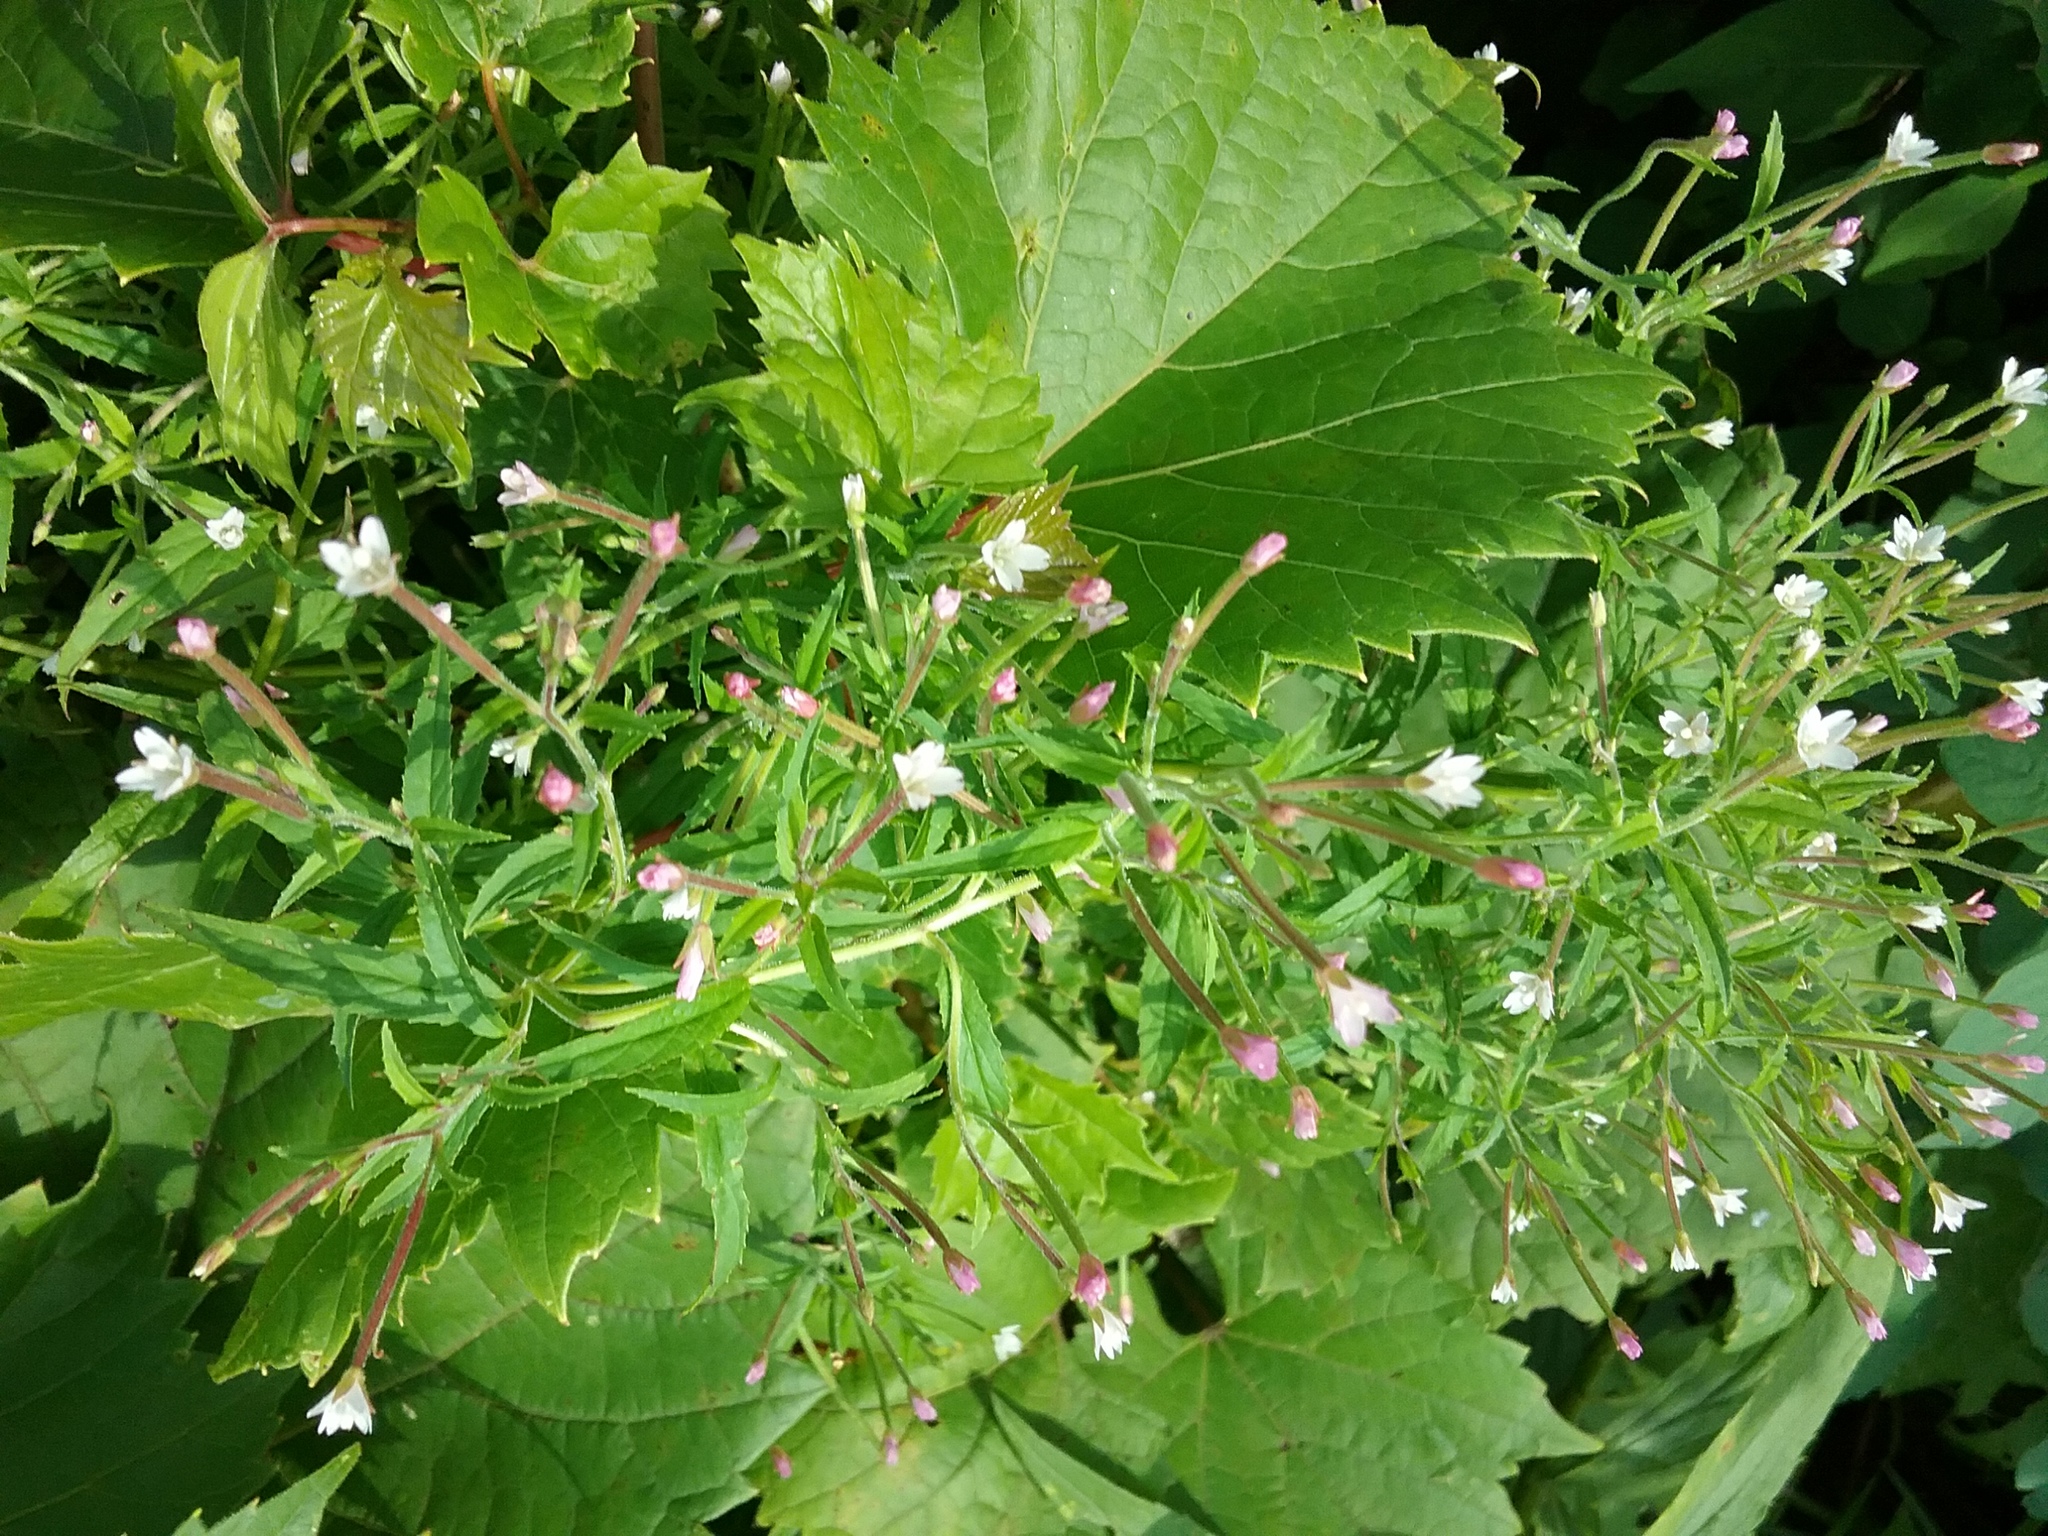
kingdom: Plantae
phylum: Tracheophyta
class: Magnoliopsida
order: Myrtales
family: Onagraceae
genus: Epilobium
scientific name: Epilobium coloratum
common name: Bronze willowherb
